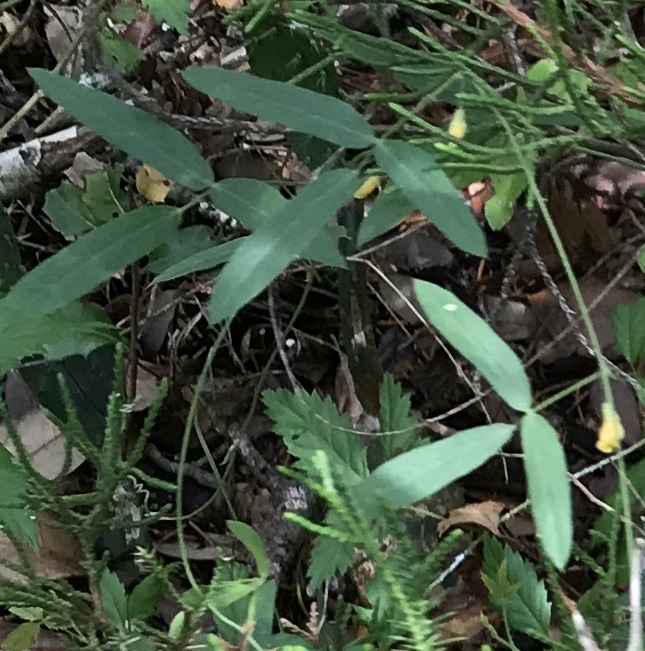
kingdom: Plantae
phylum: Tracheophyta
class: Magnoliopsida
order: Fabales
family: Fabaceae
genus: Rhynchosia
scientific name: Rhynchosia senna
